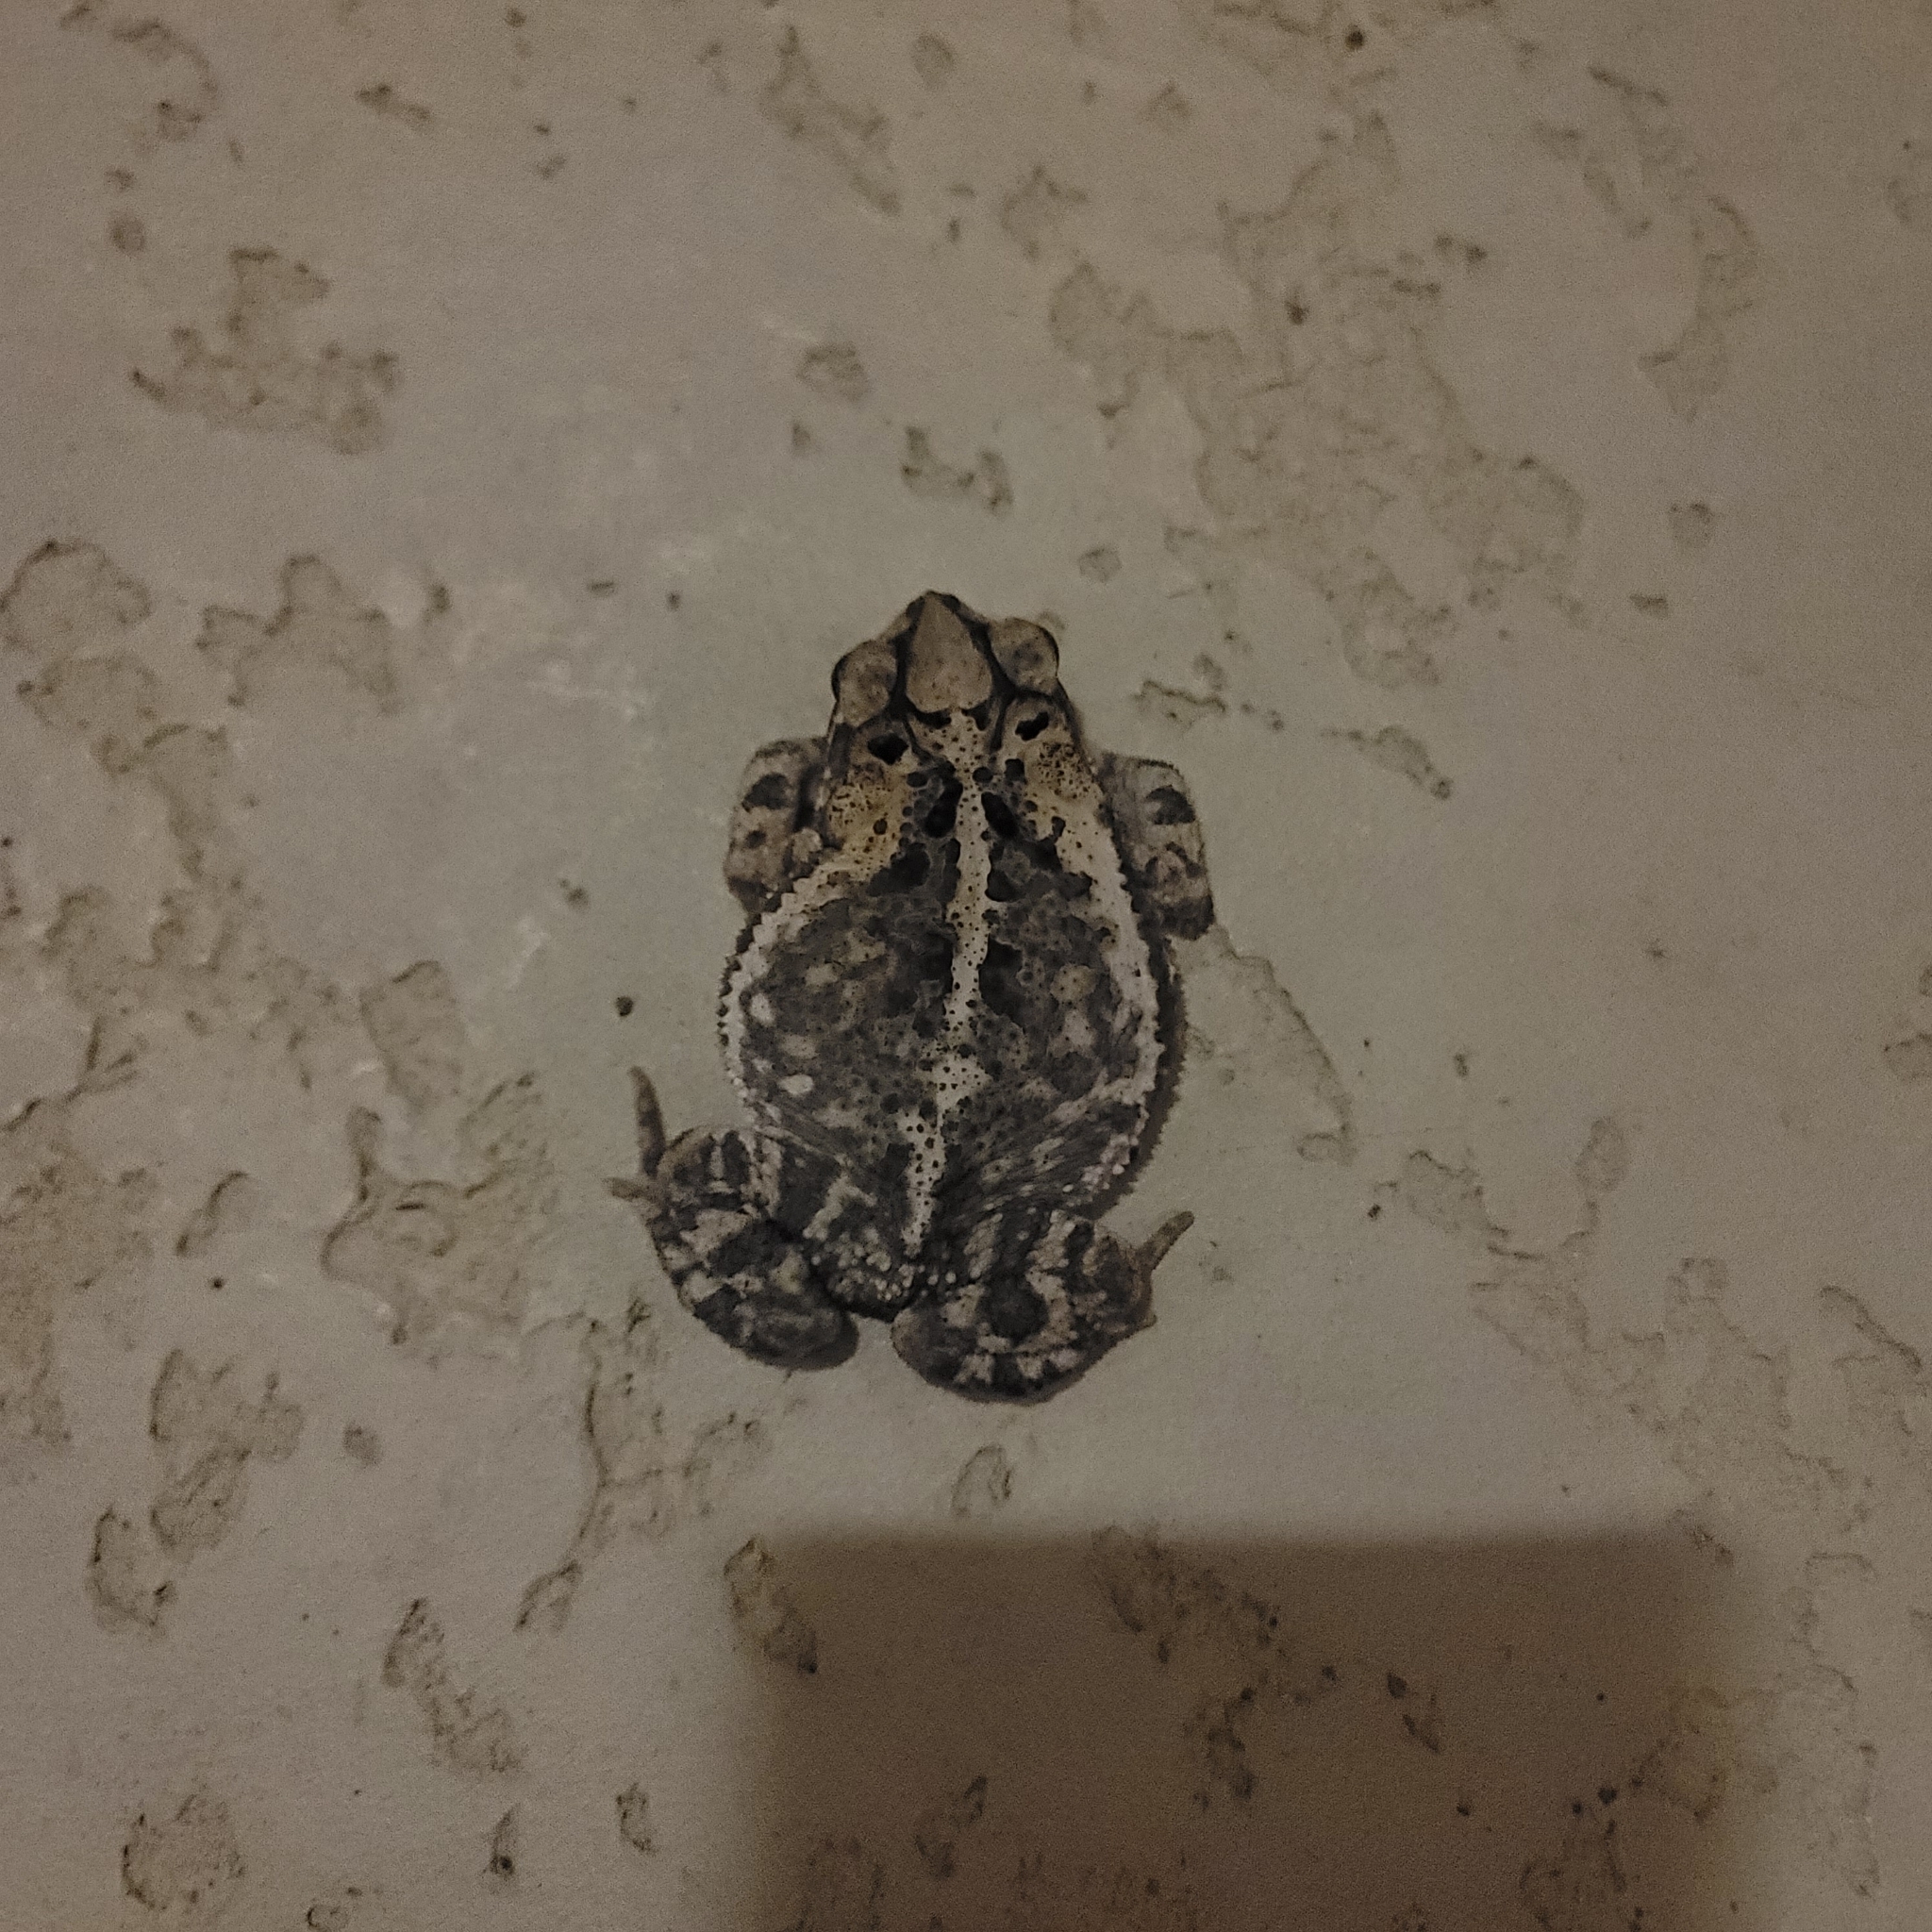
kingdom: Animalia
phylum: Chordata
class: Amphibia
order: Anura
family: Bufonidae
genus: Incilius
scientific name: Incilius nebulifer
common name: Gulf coast toad
